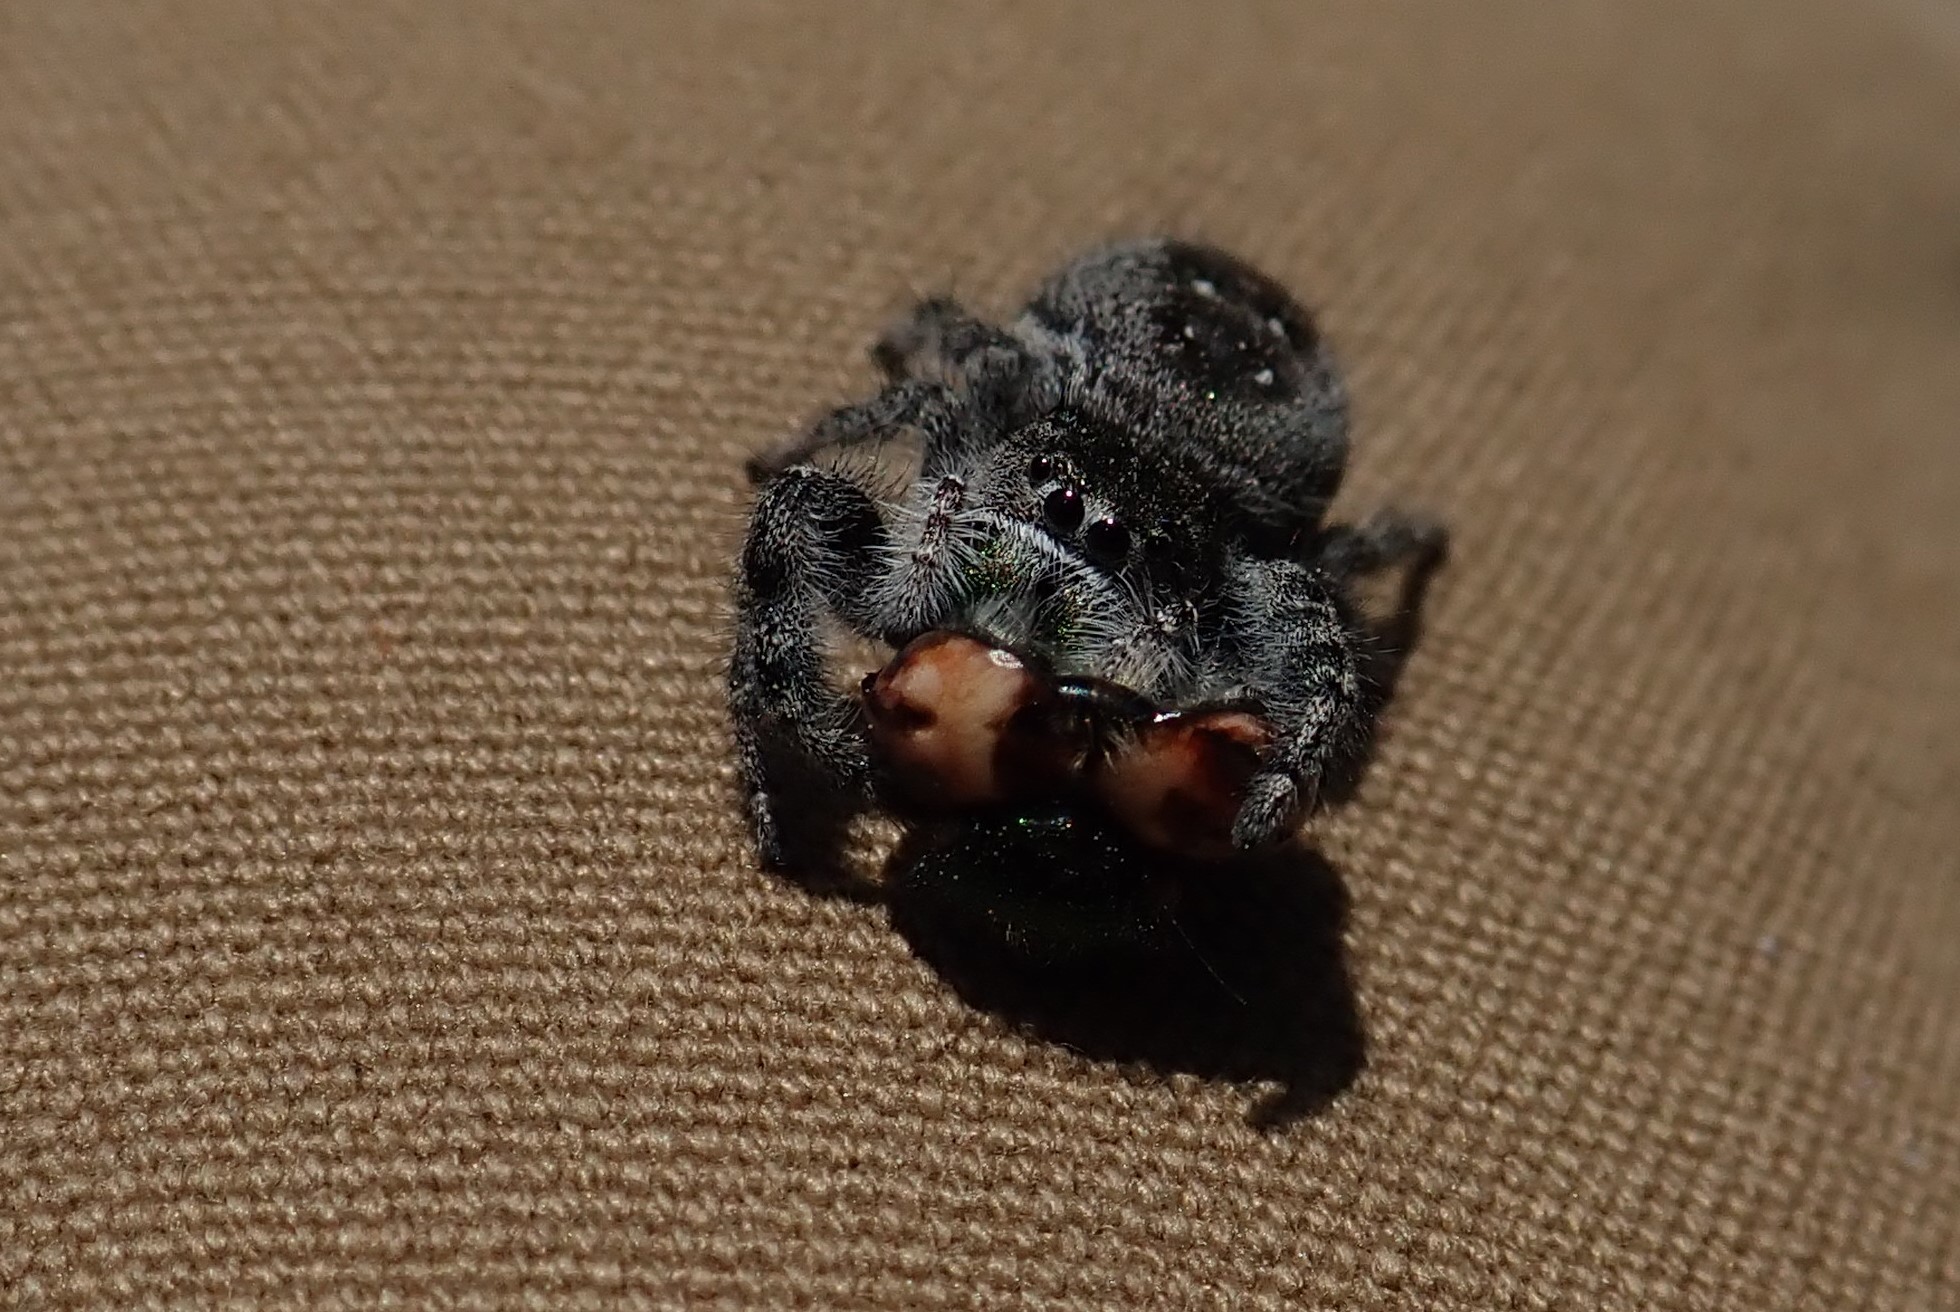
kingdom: Animalia
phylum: Arthropoda
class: Arachnida
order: Araneae
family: Salticidae
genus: Phidippus
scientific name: Phidippus purpuratus
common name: Marbled purple jumping spider
